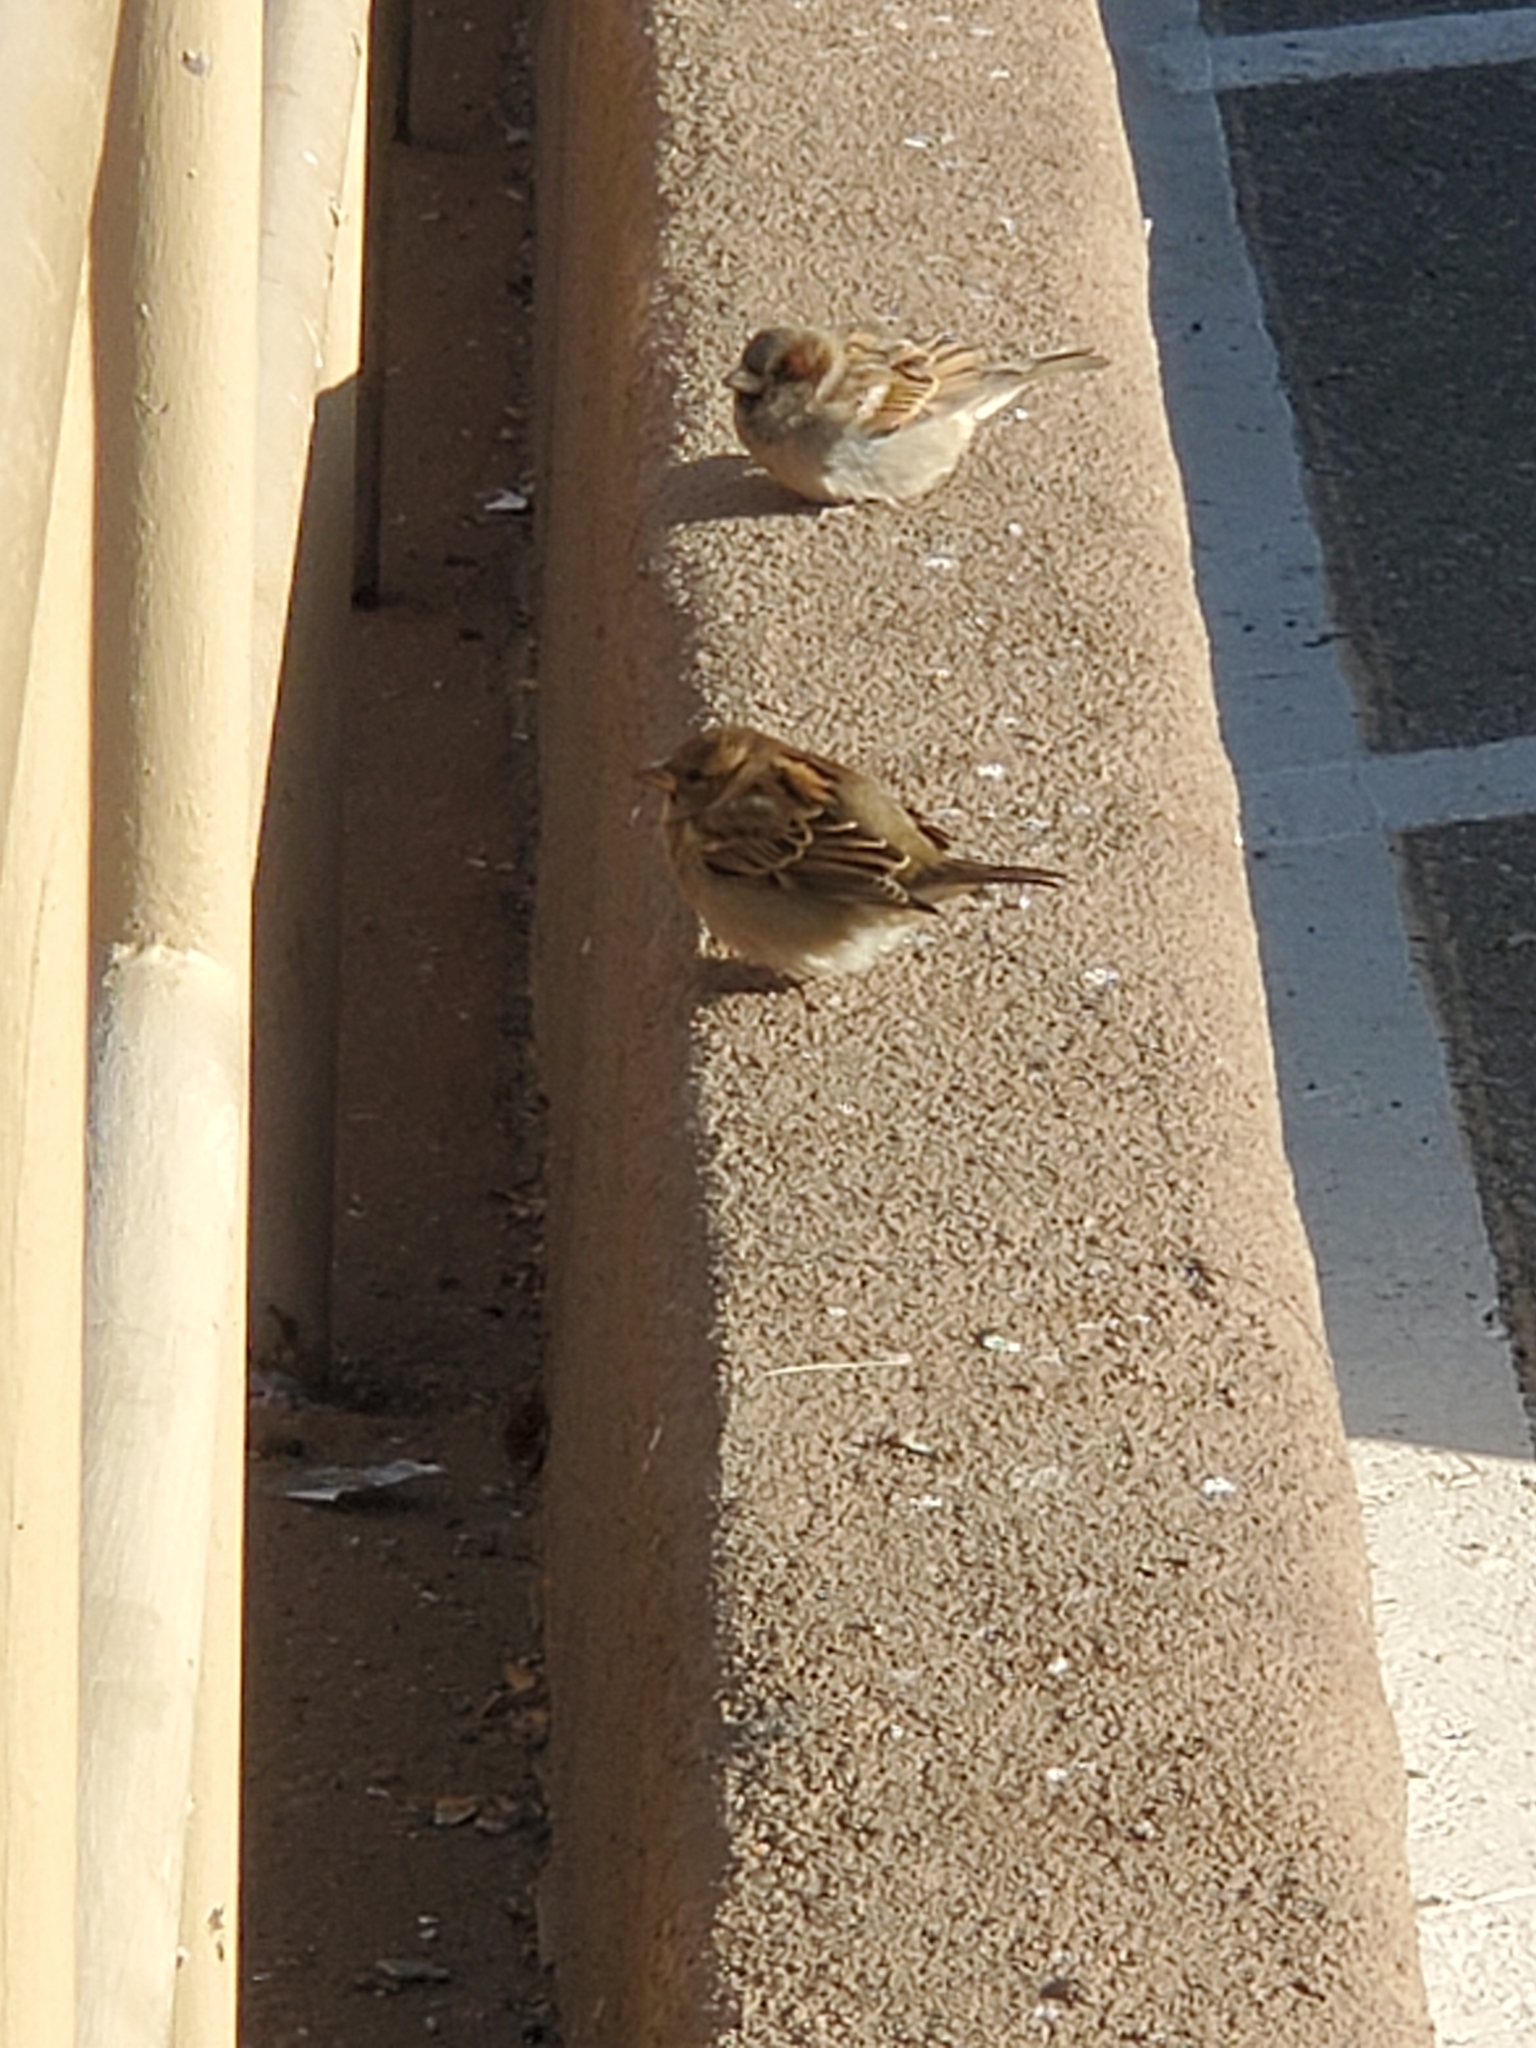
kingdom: Animalia
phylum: Chordata
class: Aves
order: Passeriformes
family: Passeridae
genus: Passer
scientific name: Passer domesticus
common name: House sparrow
